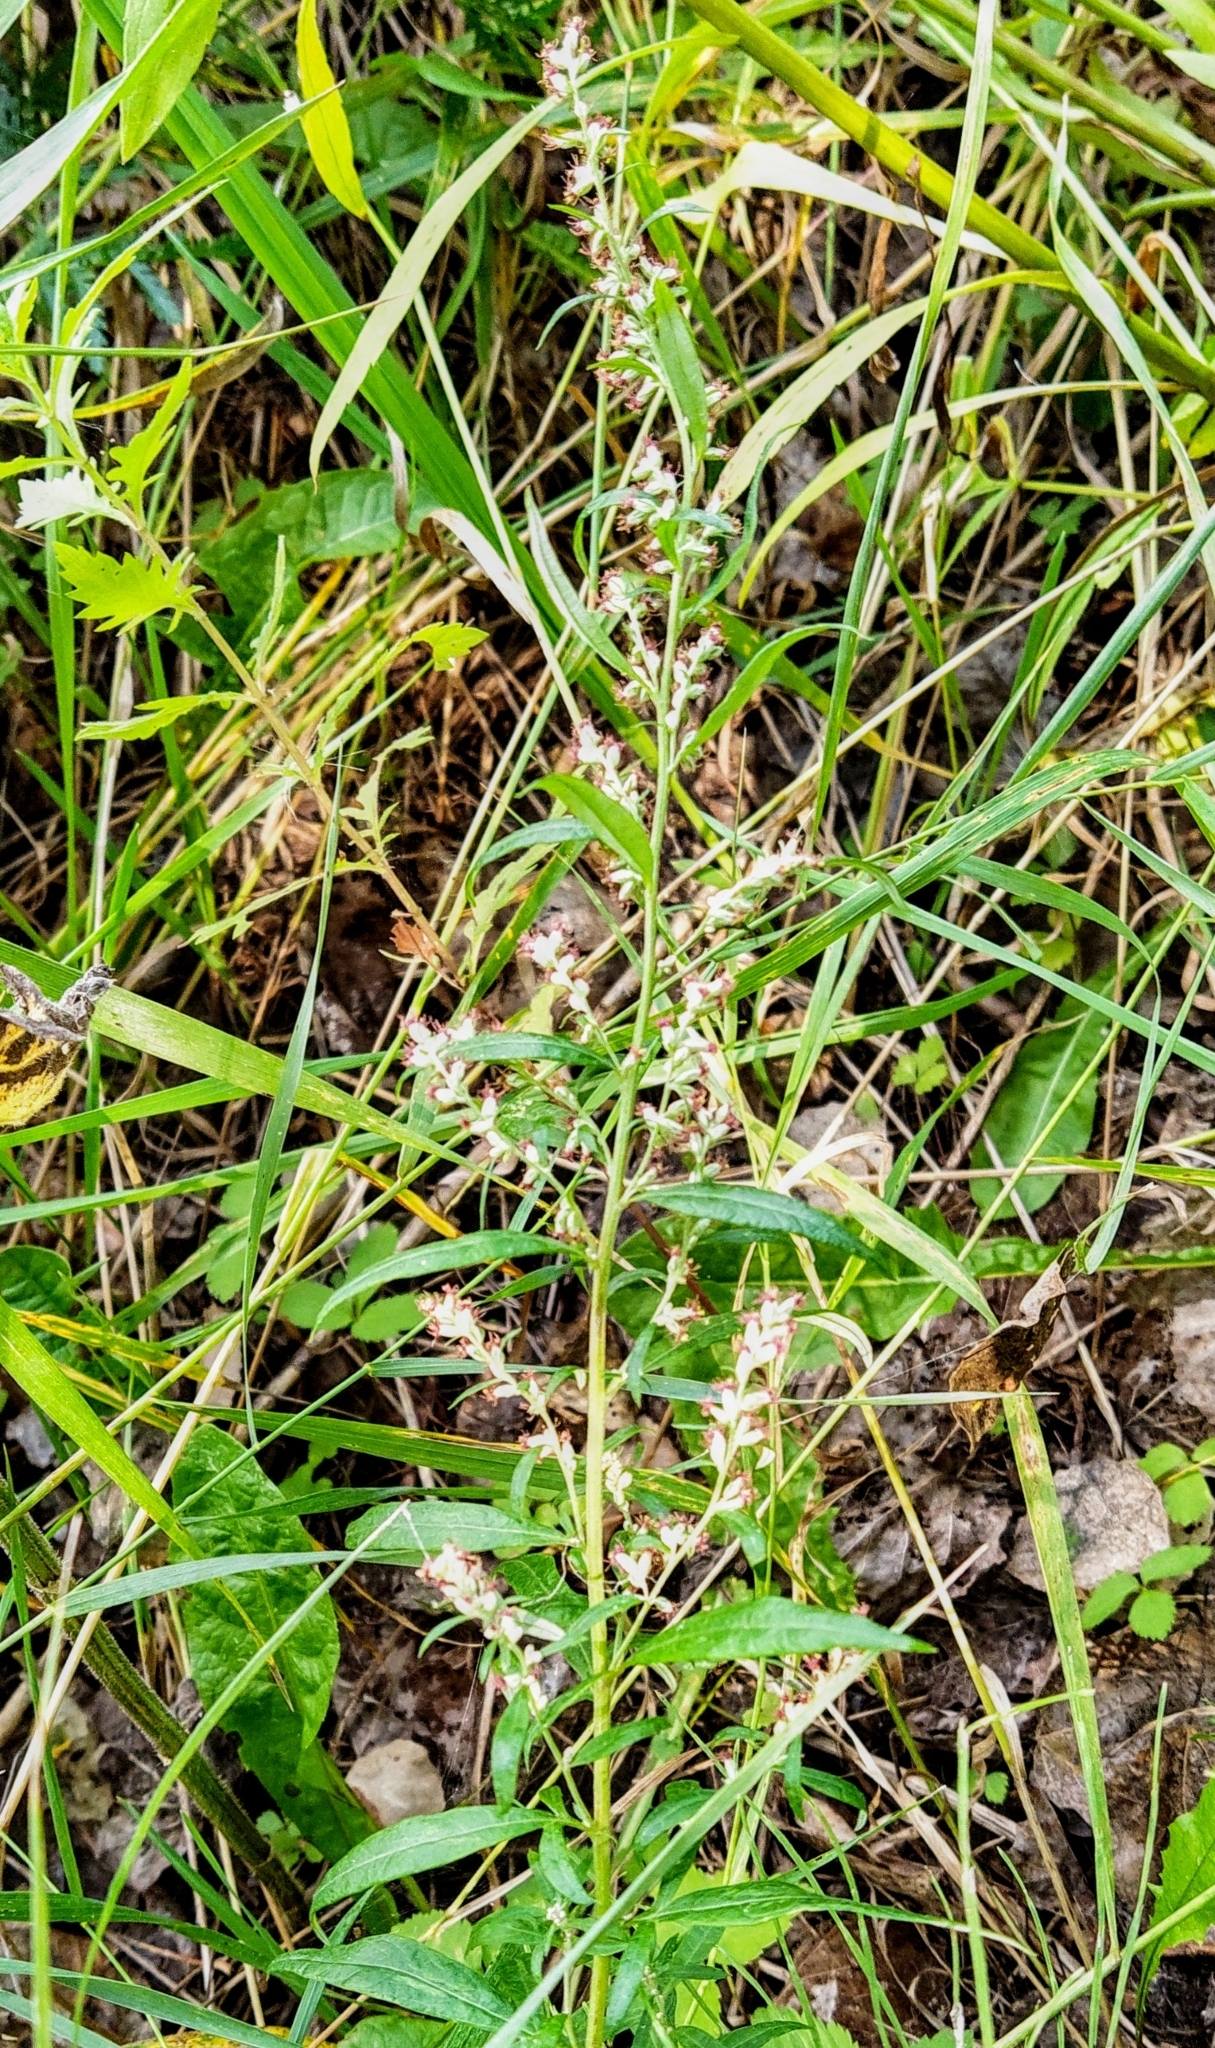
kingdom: Plantae
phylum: Tracheophyta
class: Magnoliopsida
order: Asterales
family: Asteraceae
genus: Artemisia
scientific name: Artemisia vulgaris
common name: Mugwort
